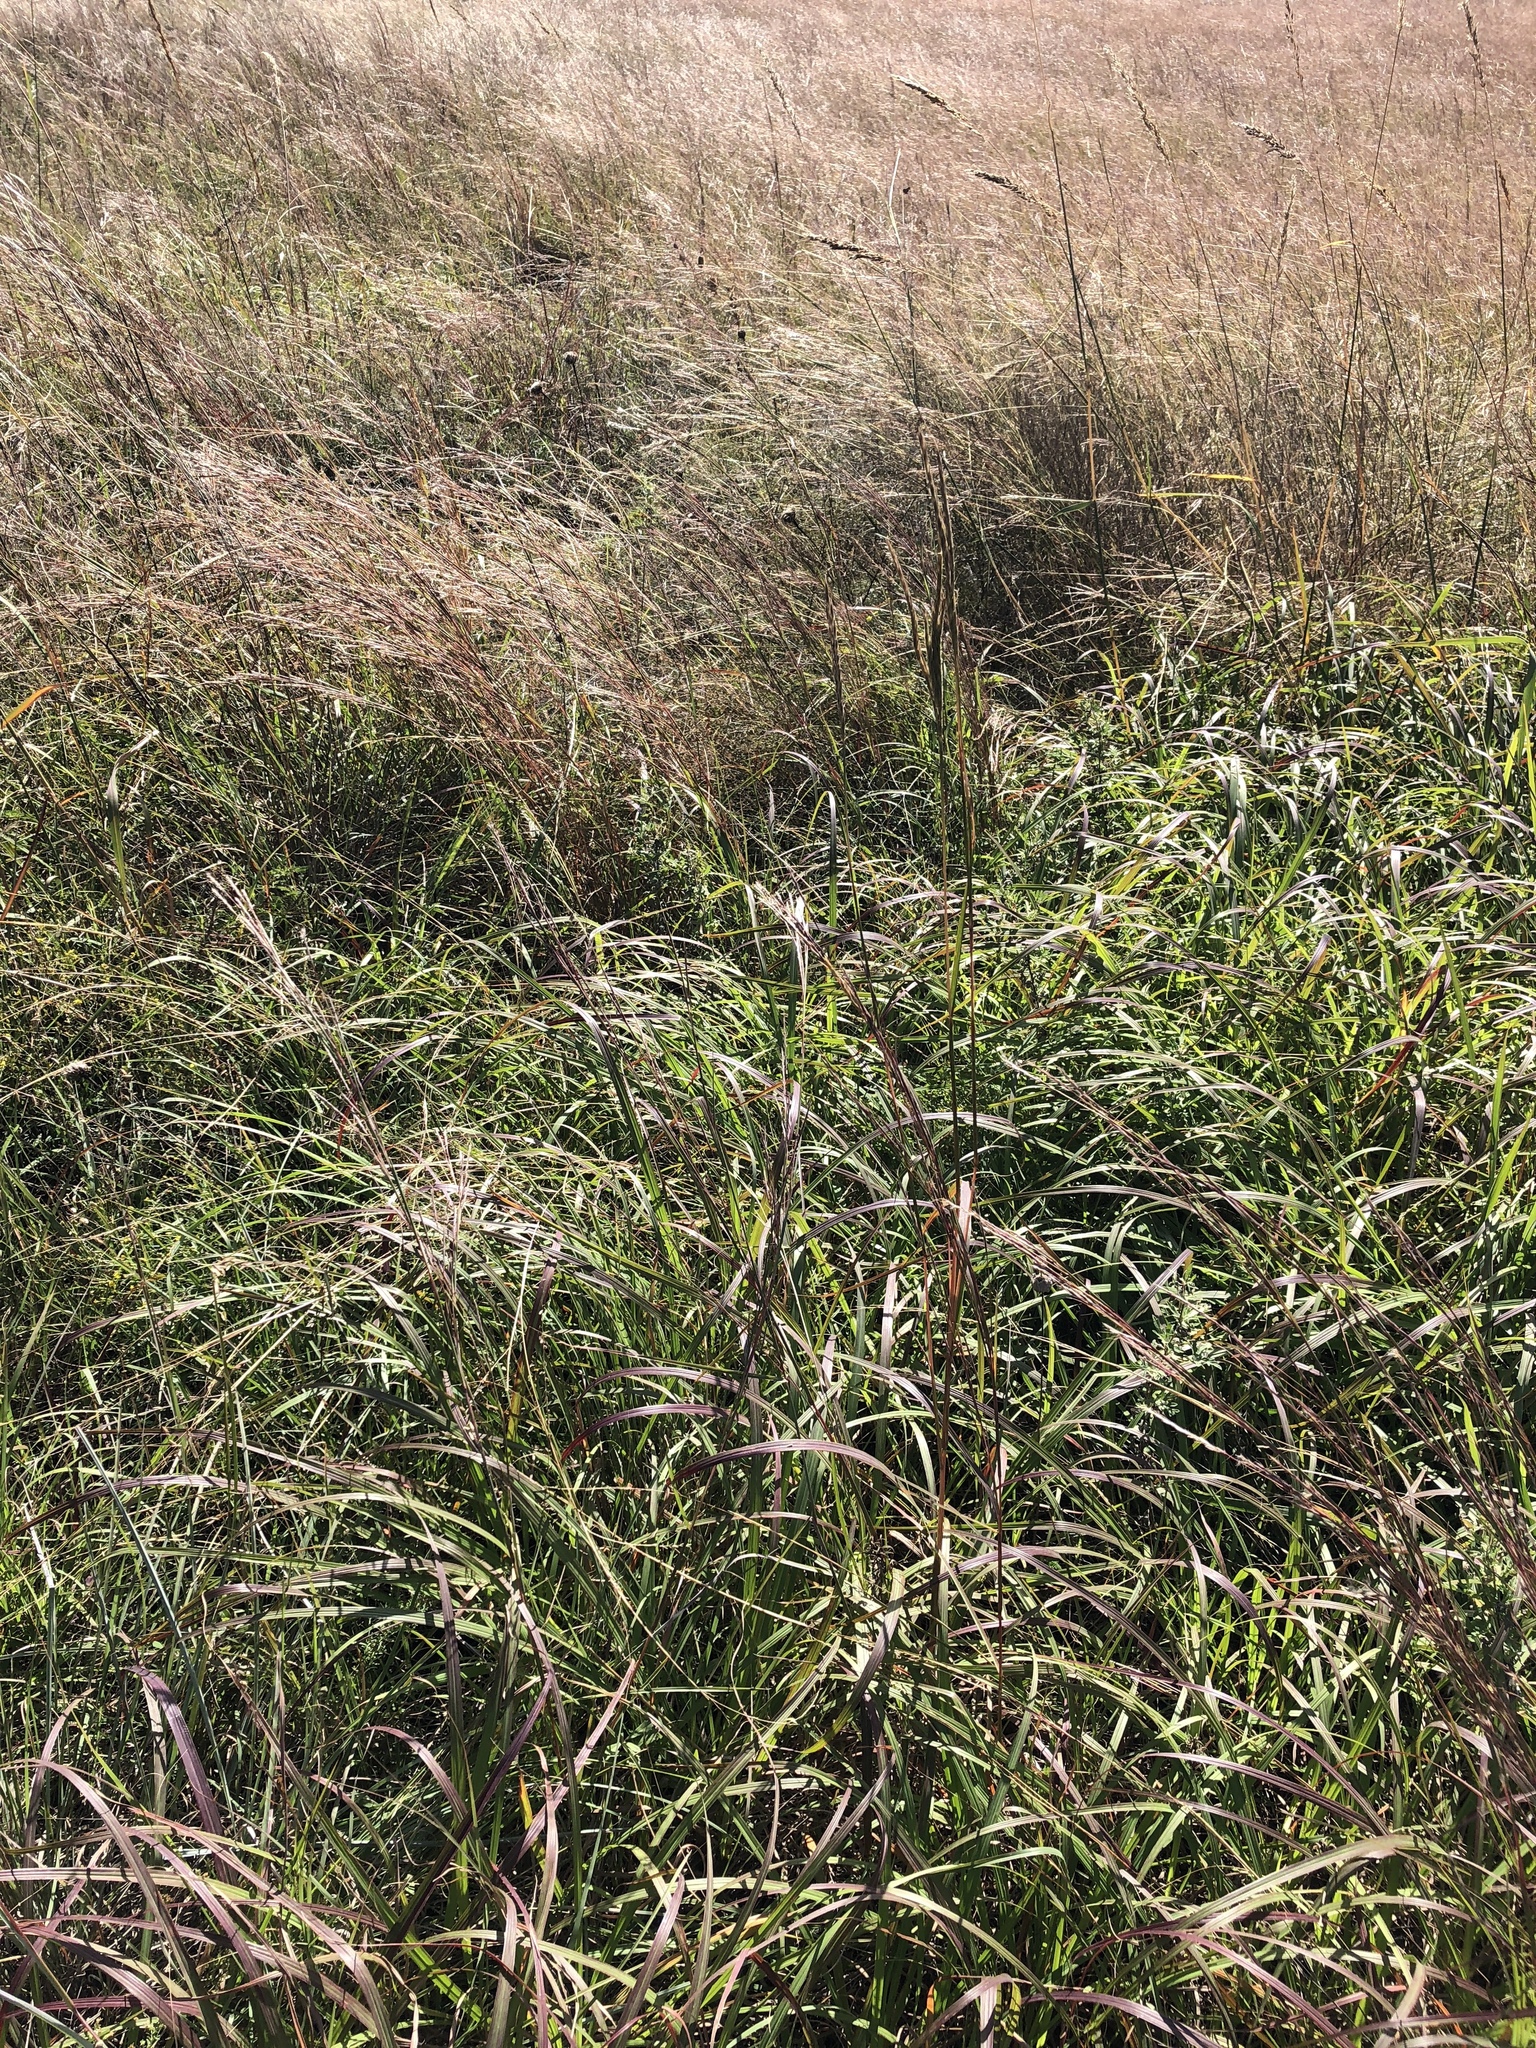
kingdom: Plantae
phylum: Tracheophyta
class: Liliopsida
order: Poales
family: Poaceae
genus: Andropogon
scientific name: Andropogon gerardi
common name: Big bluestem
